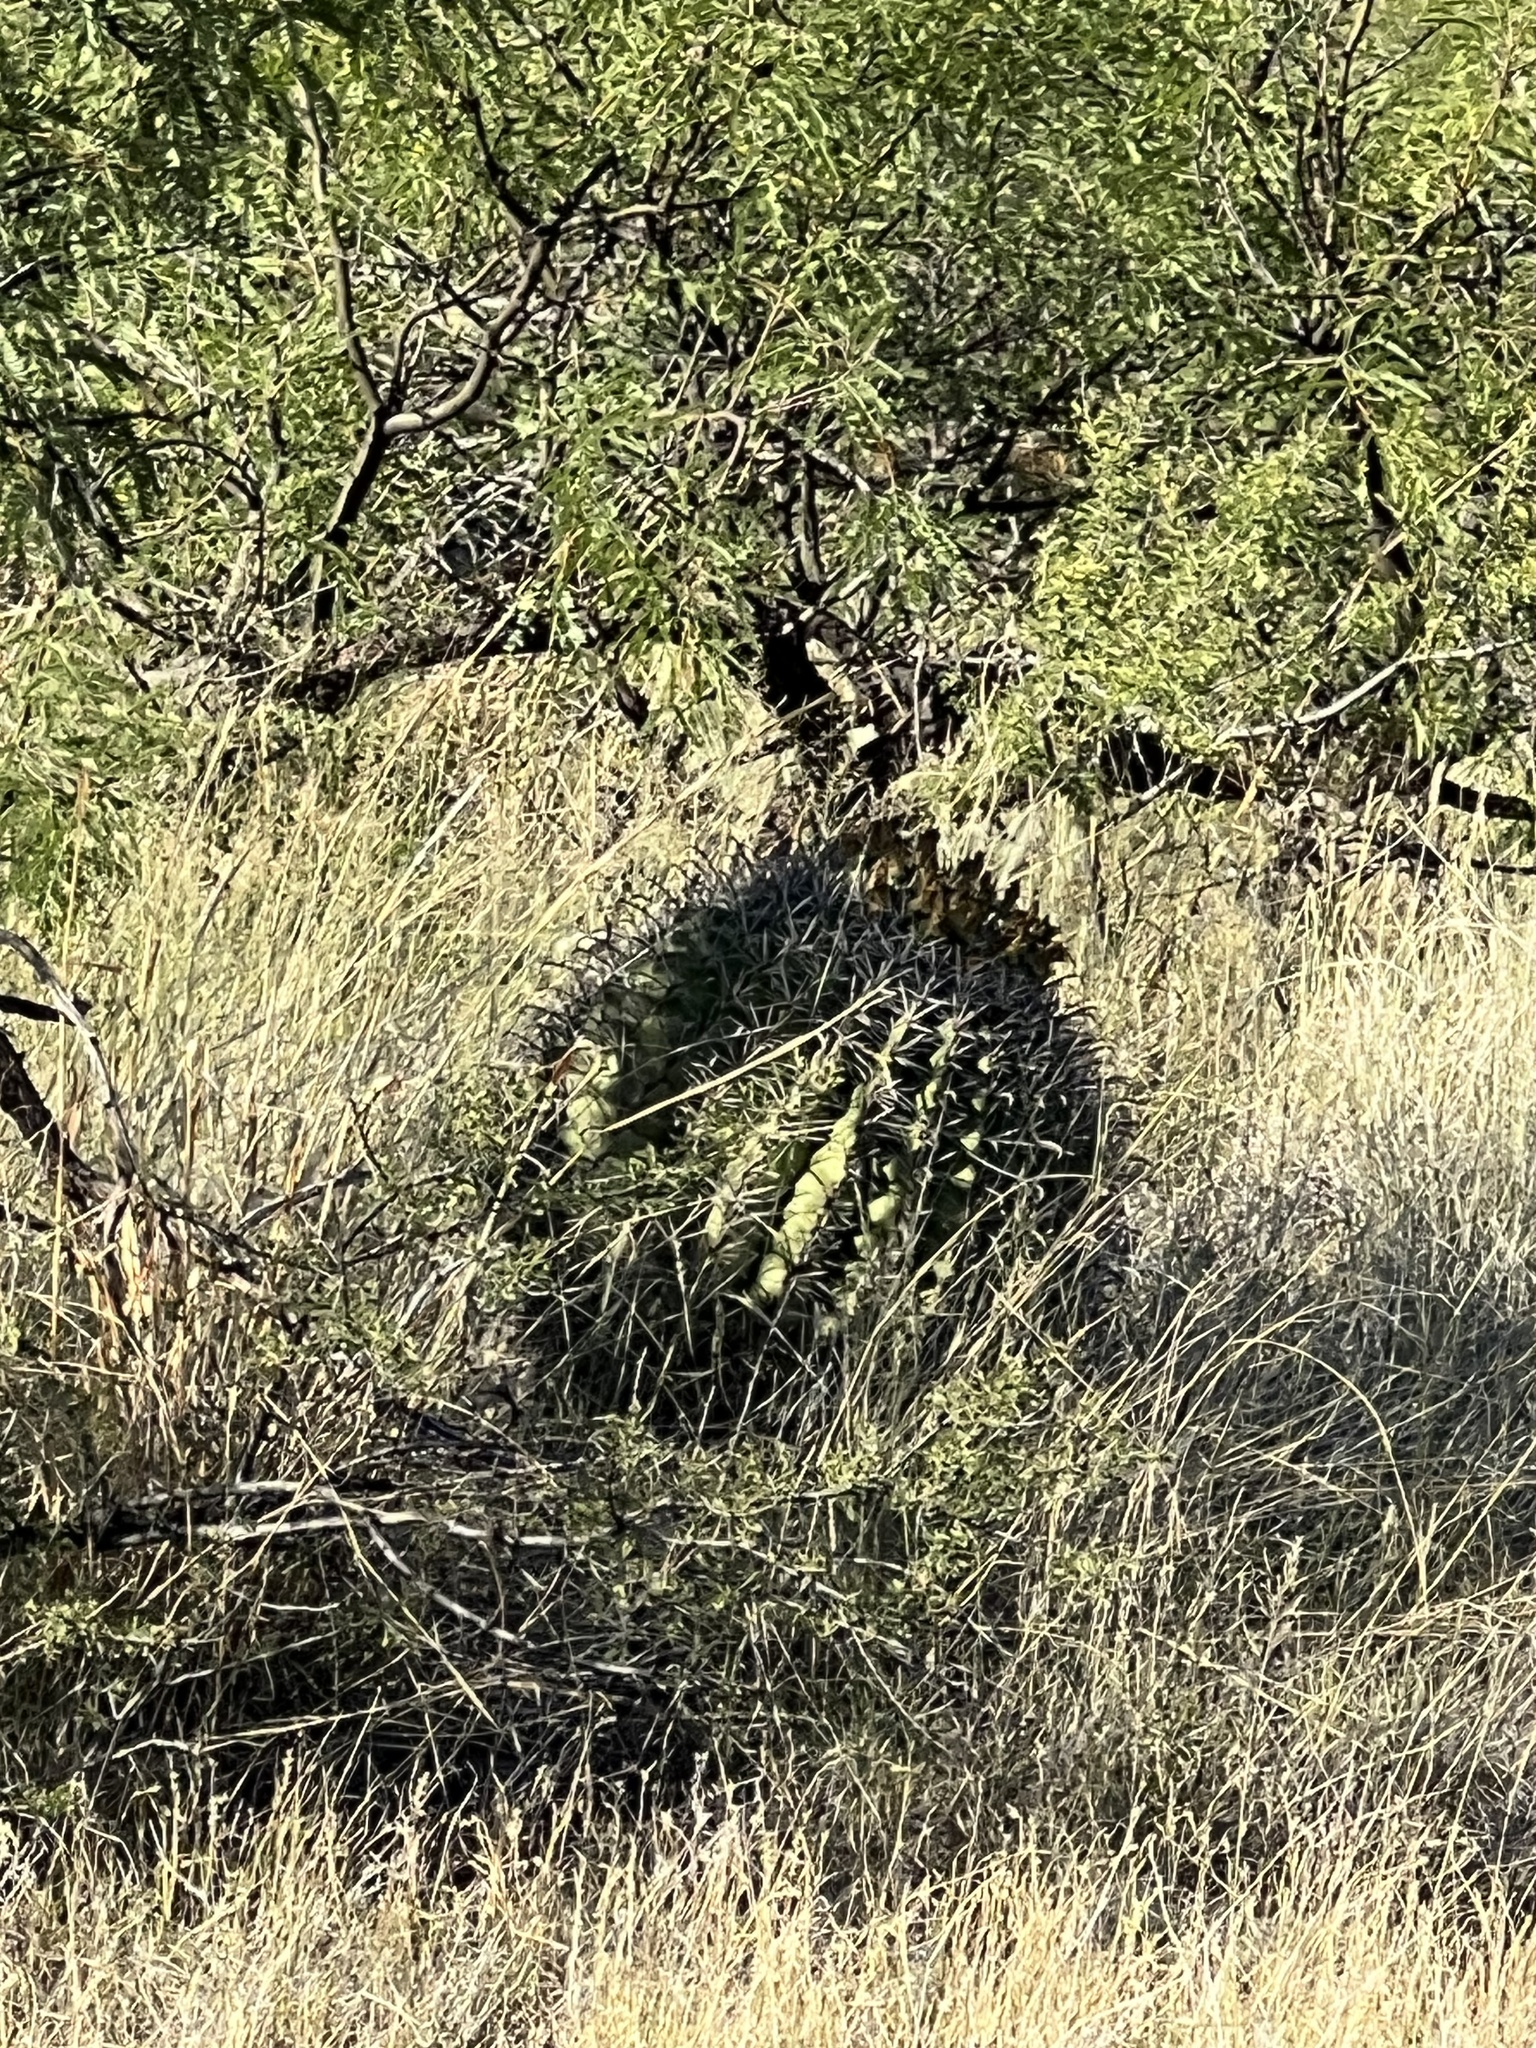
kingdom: Plantae
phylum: Tracheophyta
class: Magnoliopsida
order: Caryophyllales
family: Cactaceae
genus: Ferocactus
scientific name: Ferocactus wislizeni
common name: Candy barrel cactus
